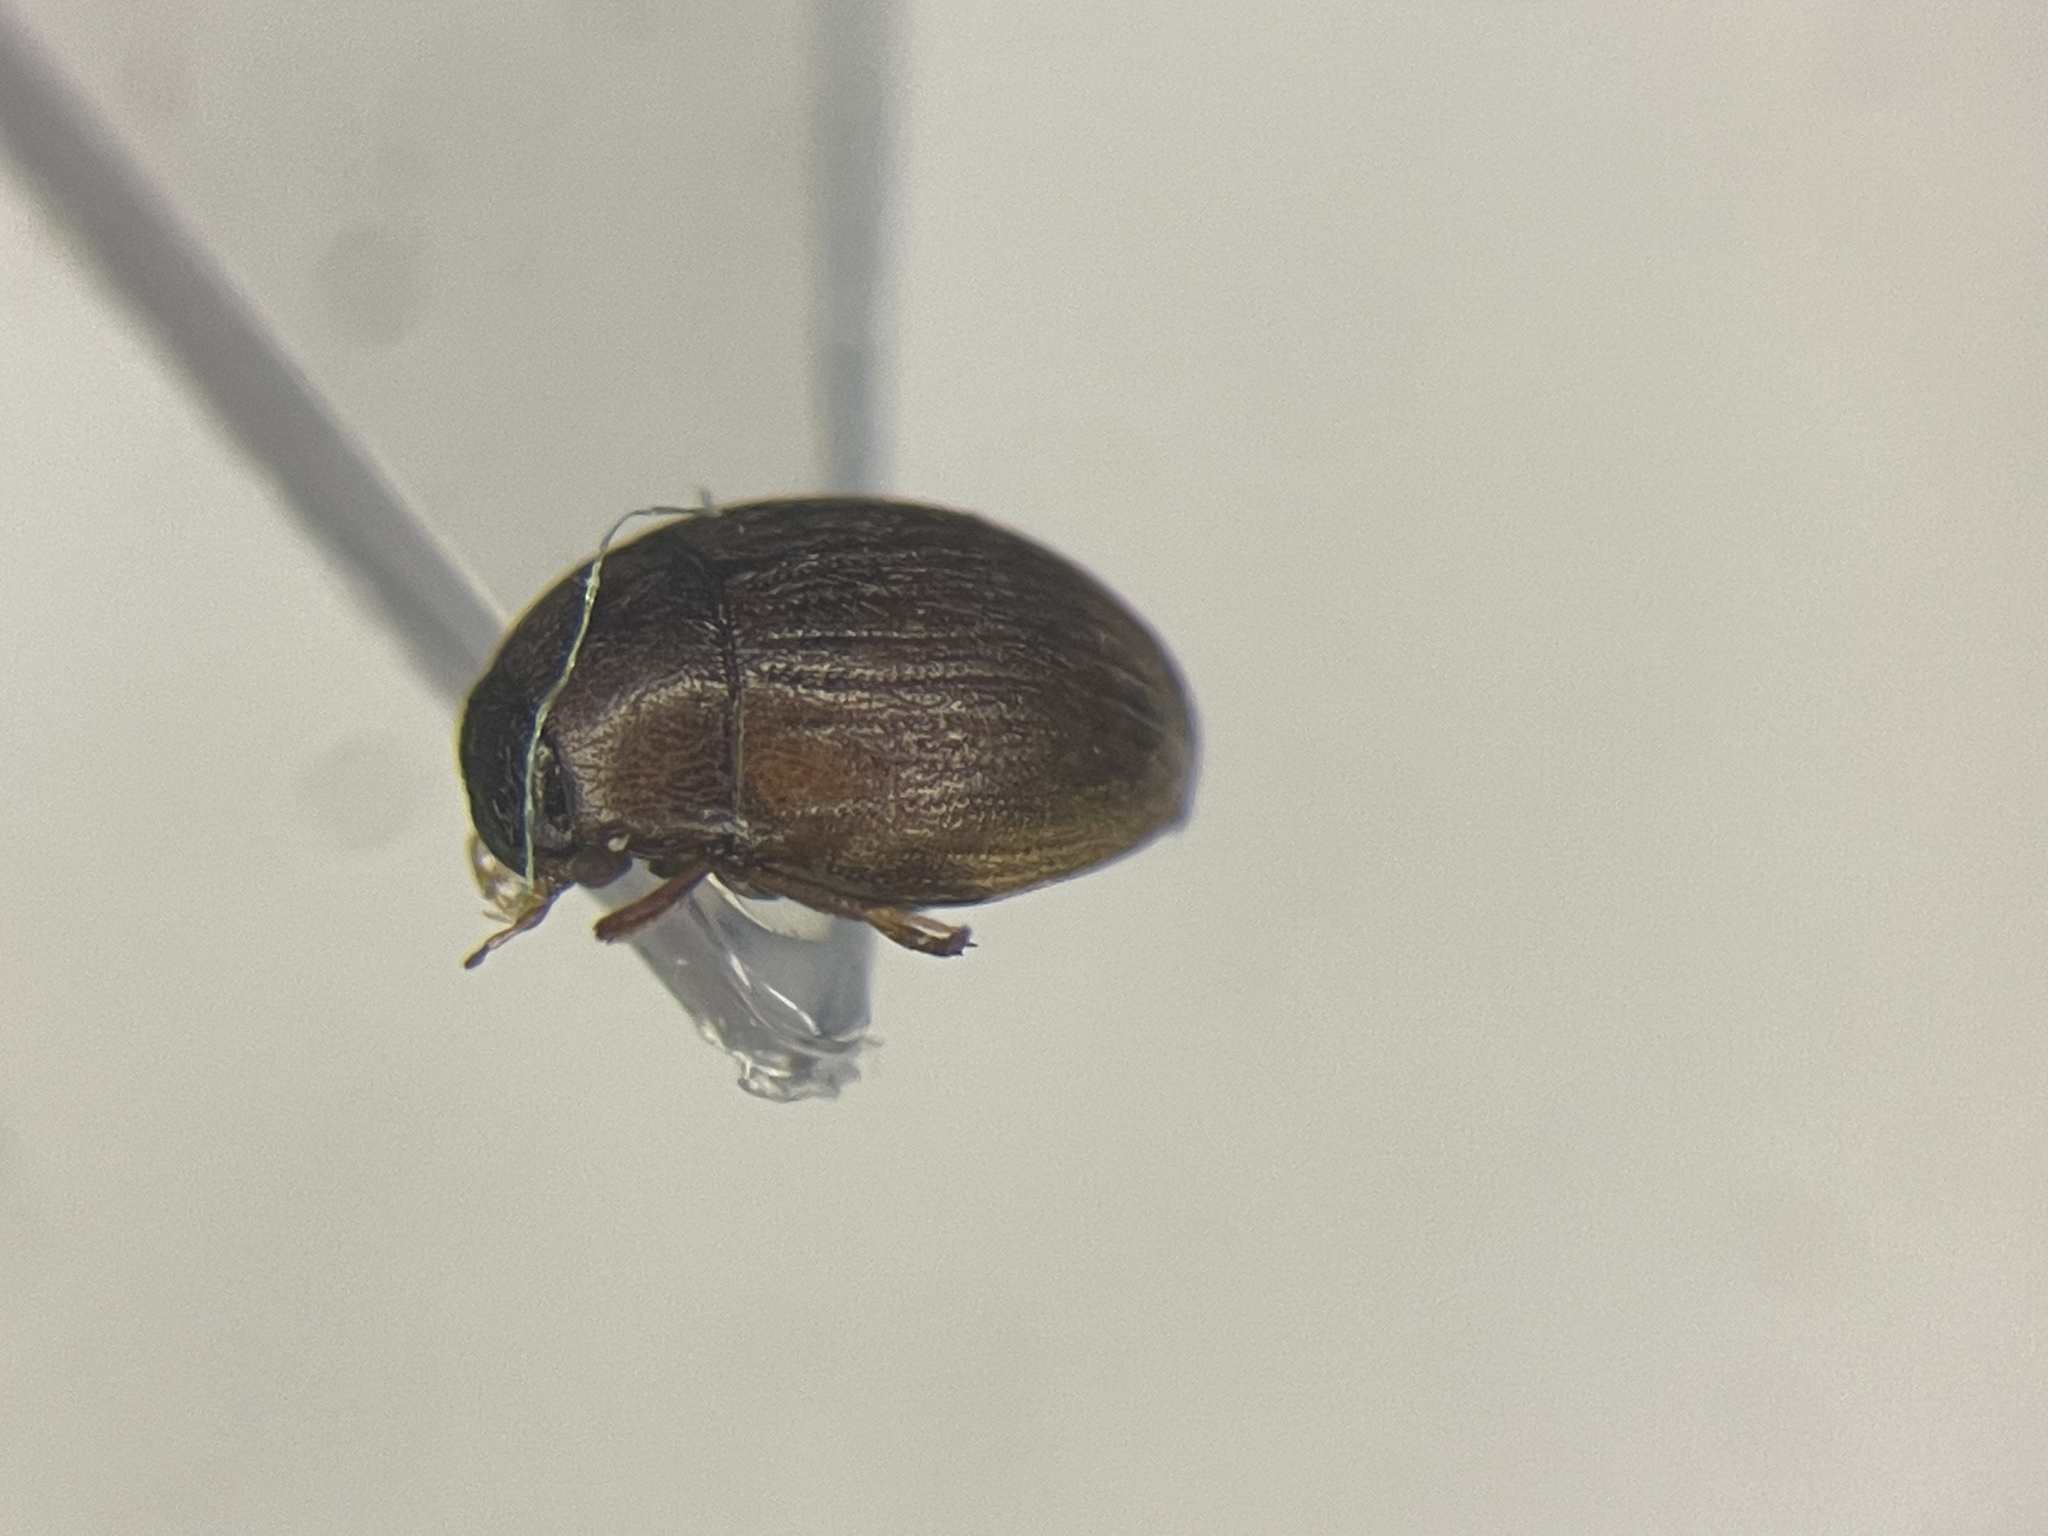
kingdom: Animalia
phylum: Arthropoda
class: Insecta
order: Coleoptera
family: Hydrophilidae
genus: Cryptopleurum
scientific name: Cryptopleurum subtile
